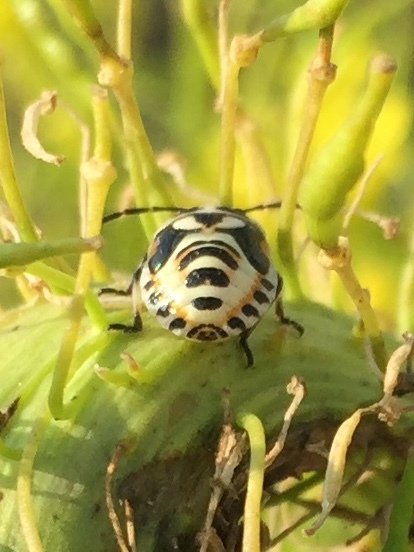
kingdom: Animalia
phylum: Arthropoda
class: Insecta
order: Hemiptera
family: Pentatomidae
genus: Eurydema
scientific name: Eurydema ornata
